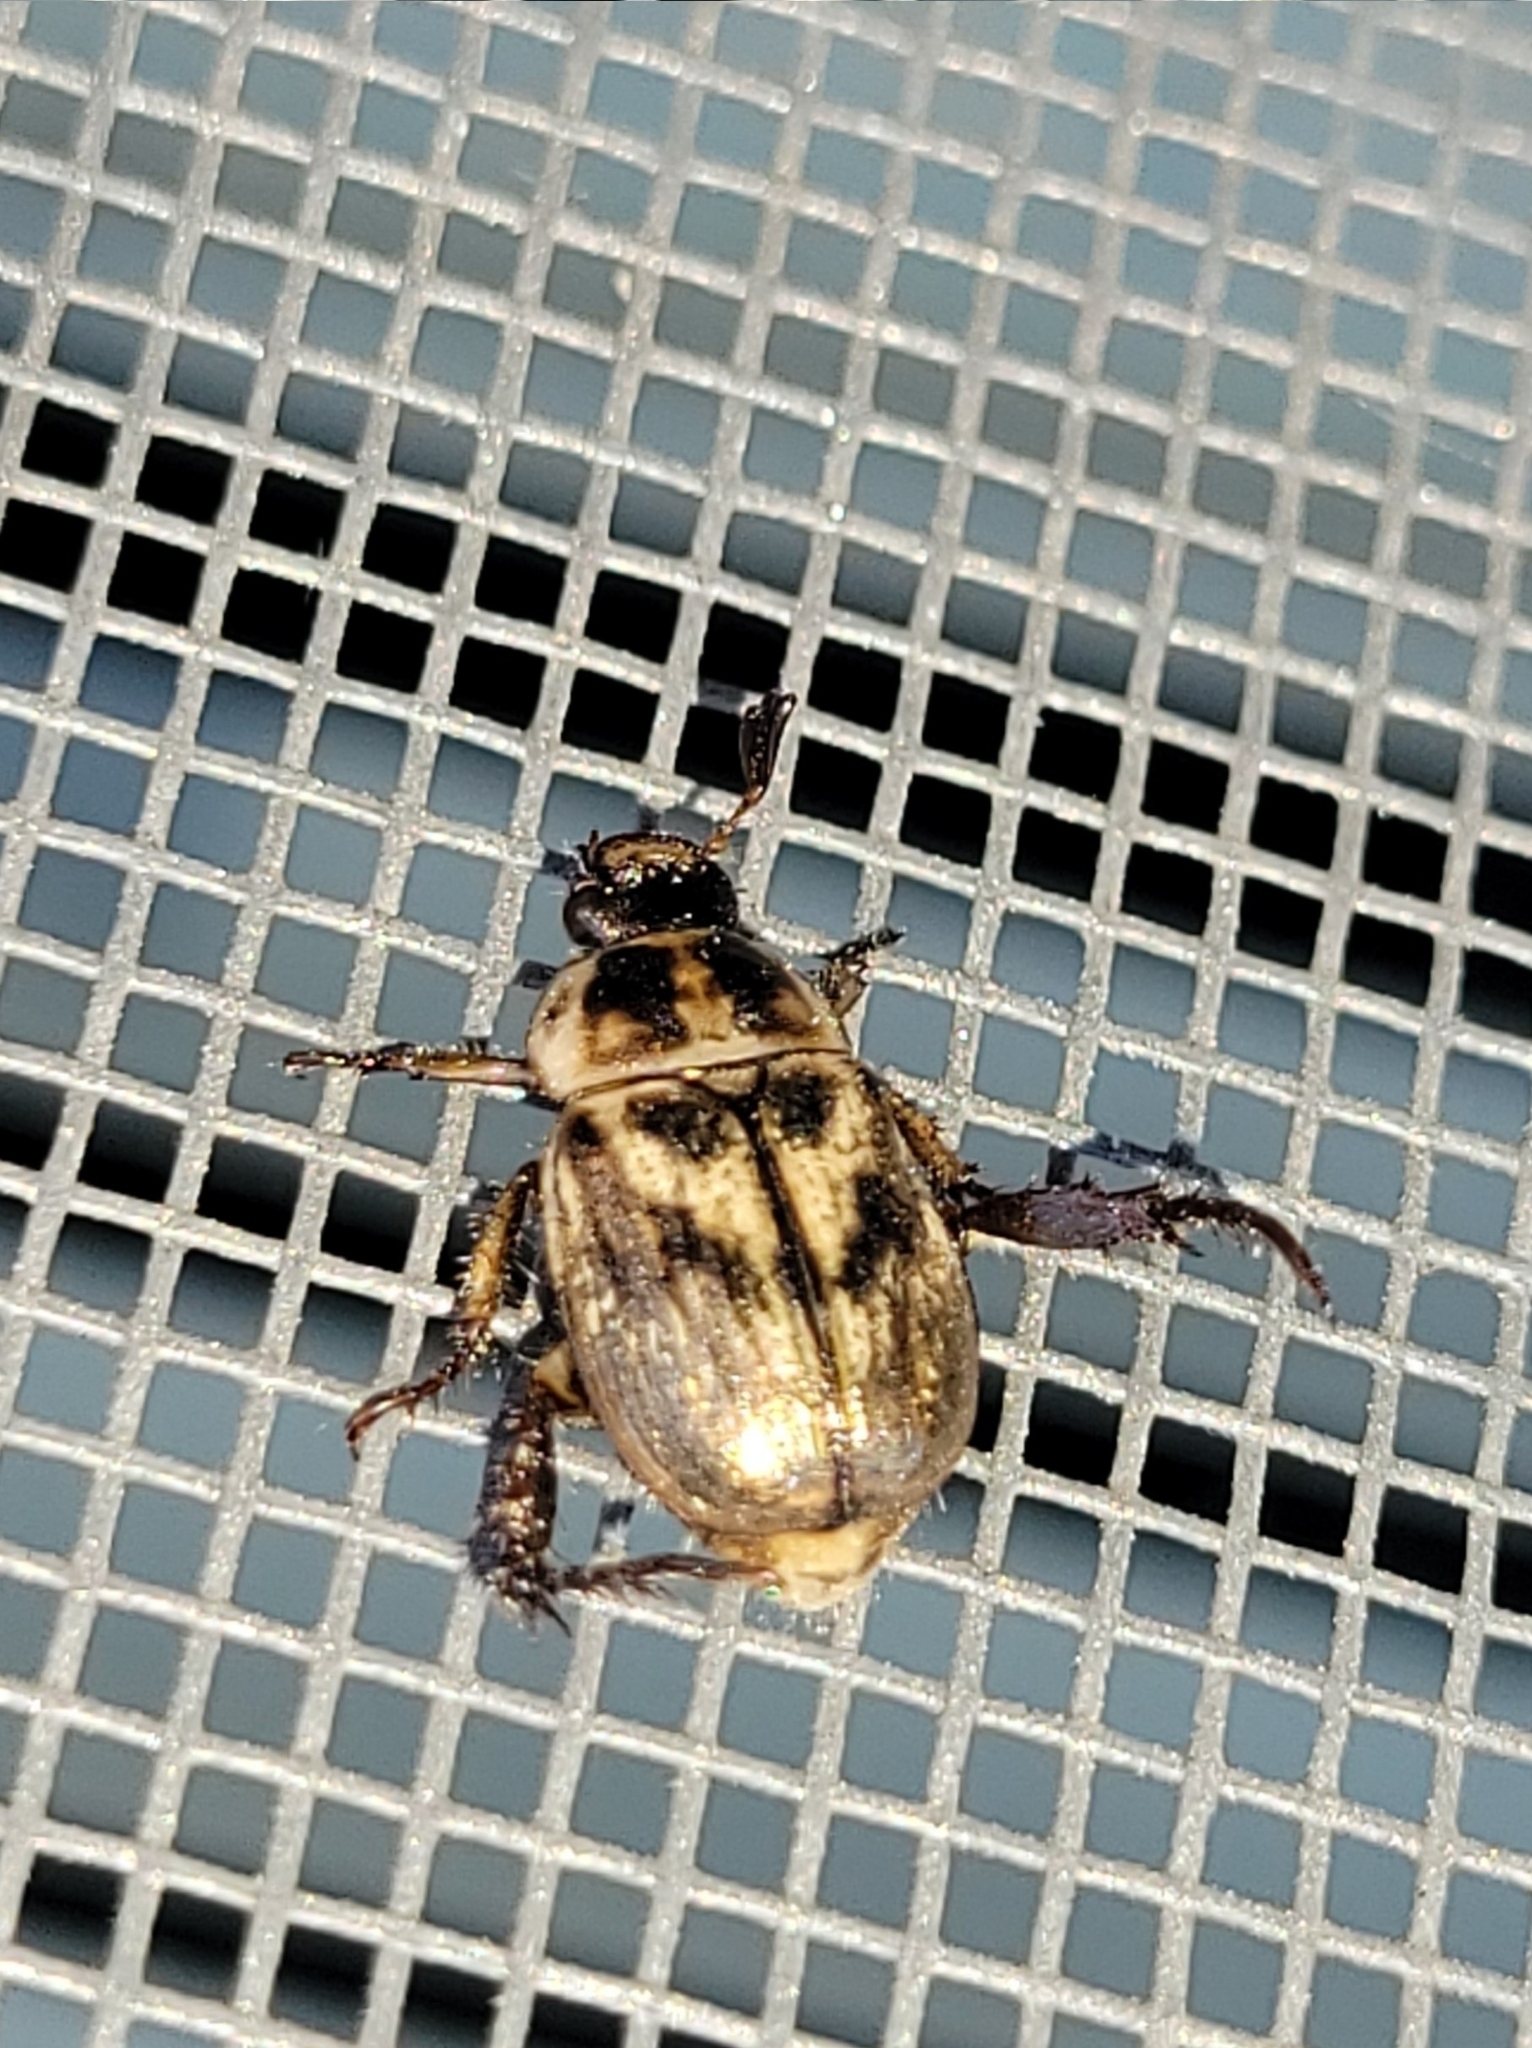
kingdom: Animalia
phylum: Arthropoda
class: Insecta
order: Coleoptera
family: Scarabaeidae
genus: Exomala
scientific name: Exomala orientalis
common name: Oriental beetle
